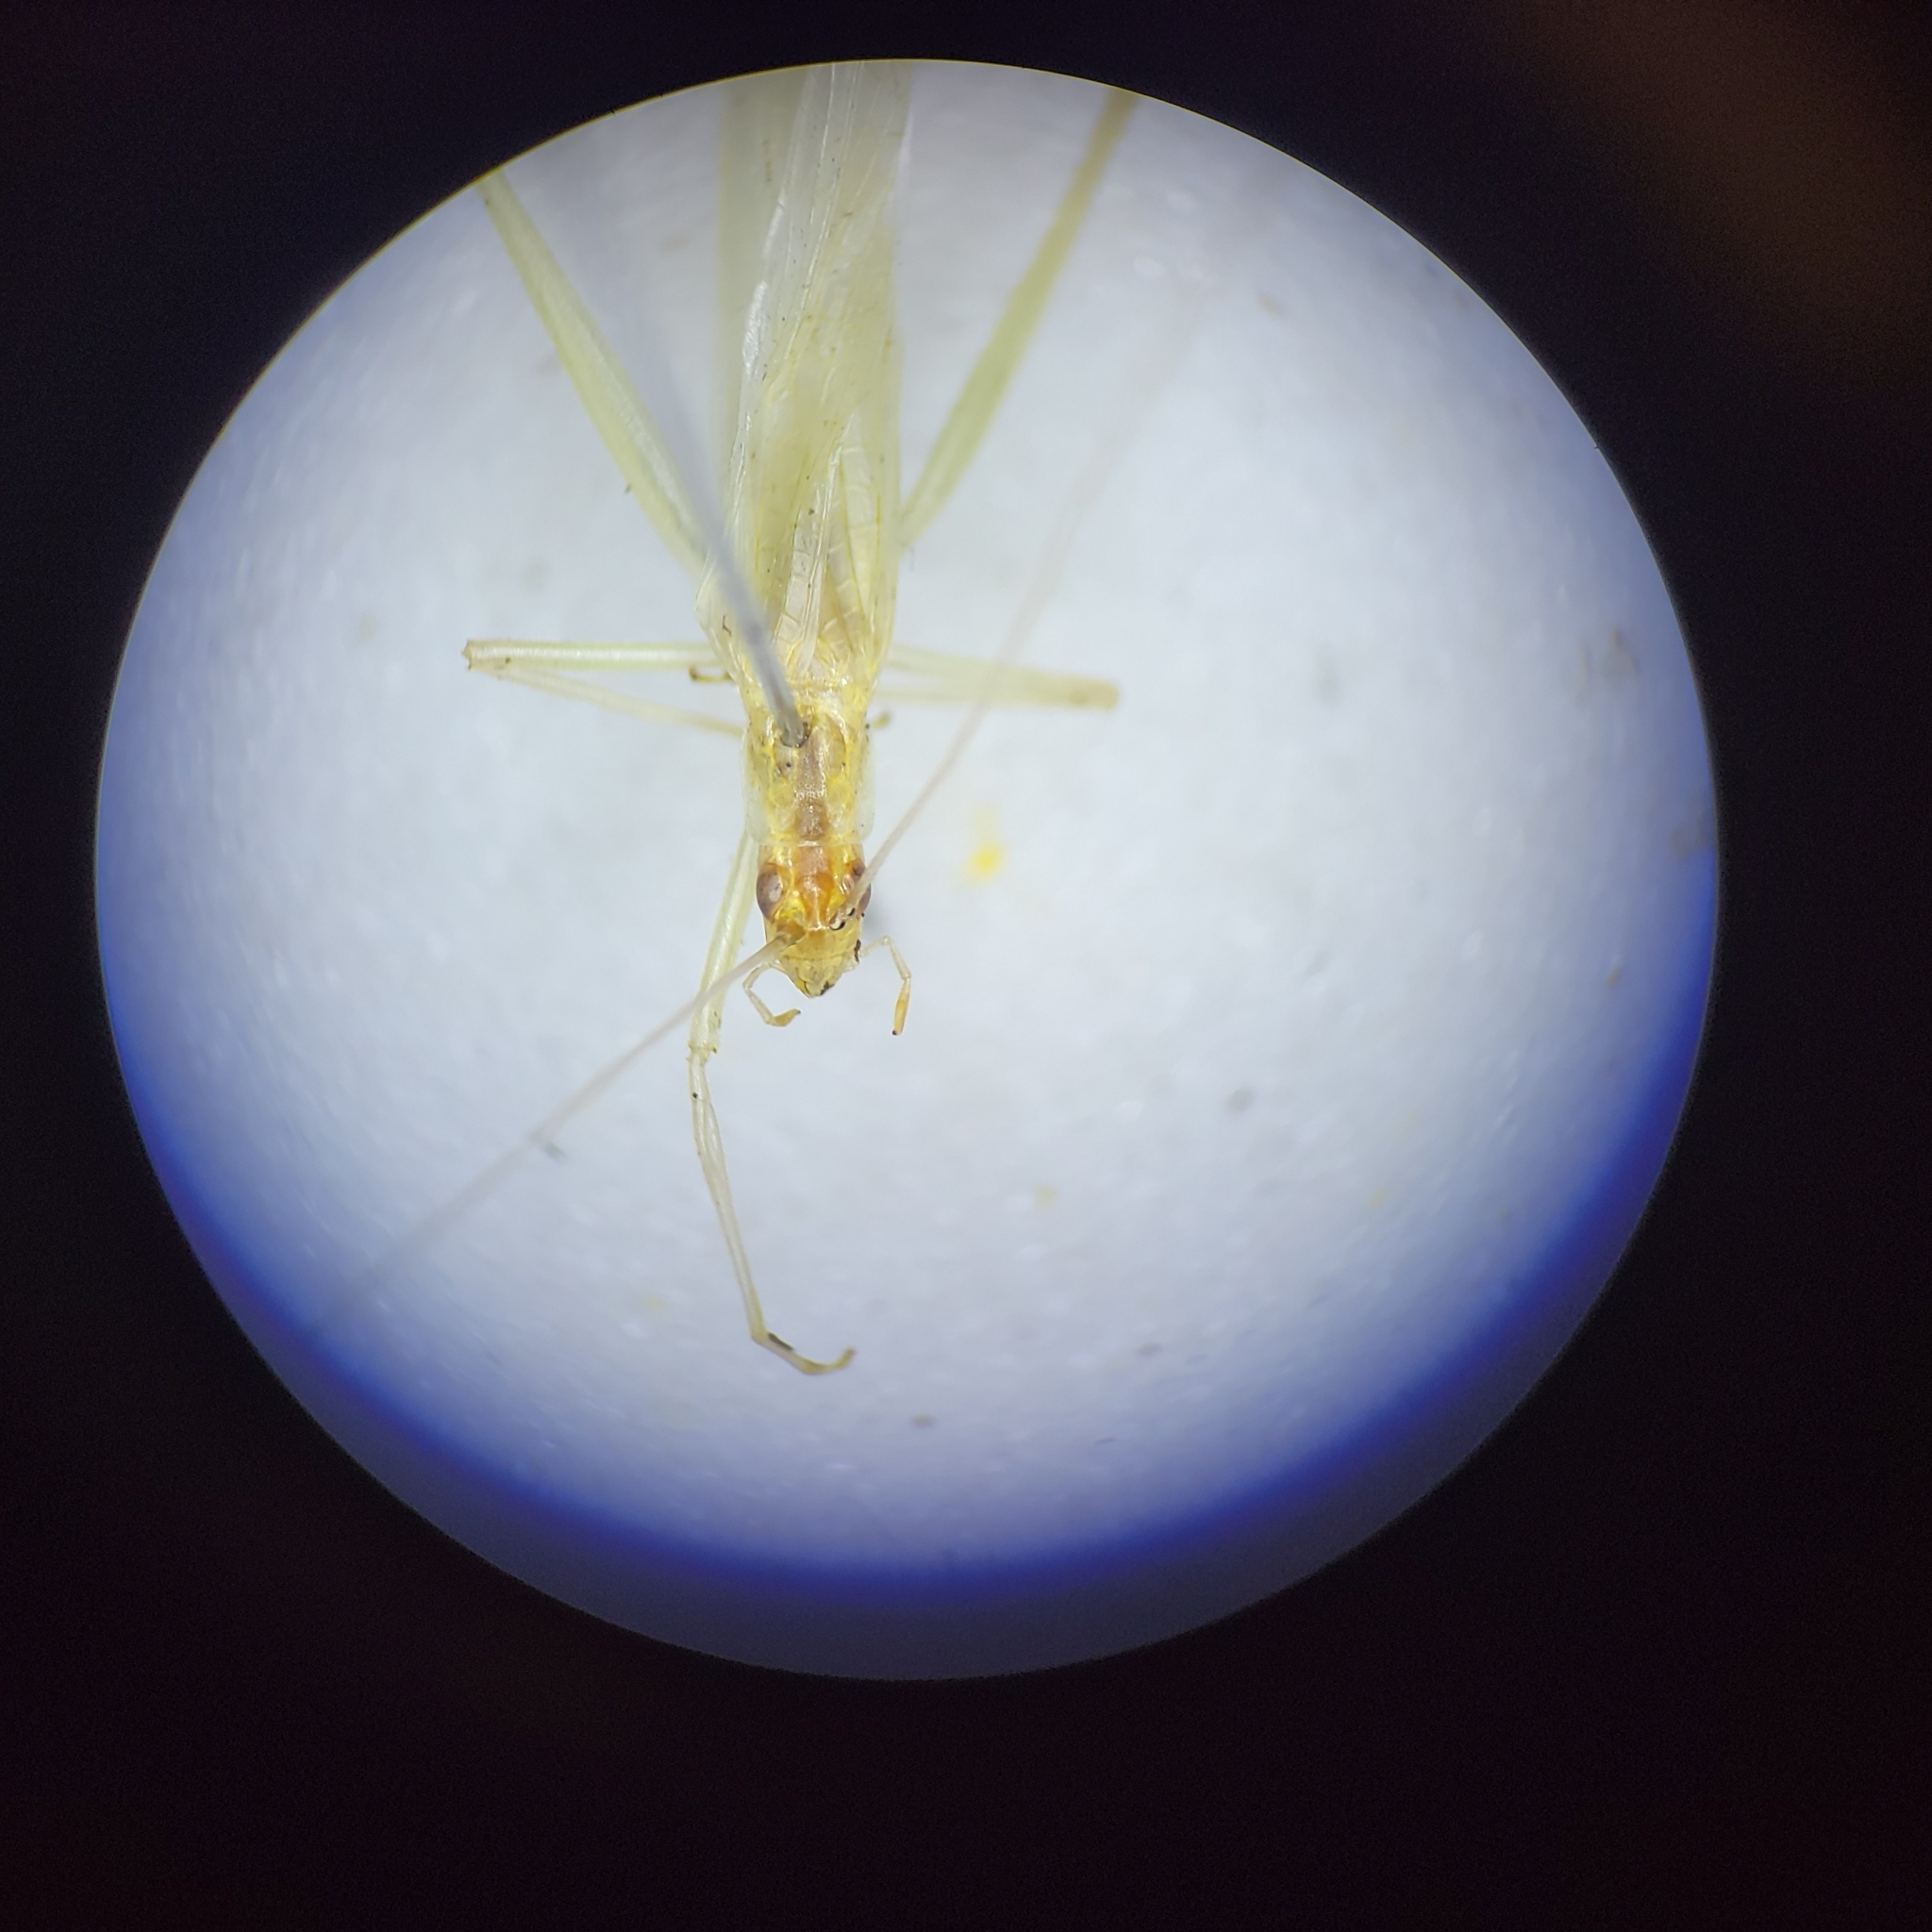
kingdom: Animalia
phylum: Arthropoda
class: Insecta
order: Orthoptera
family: Gryllidae
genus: Oecanthus
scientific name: Oecanthus niveus
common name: Narrow-winged tree cricket
